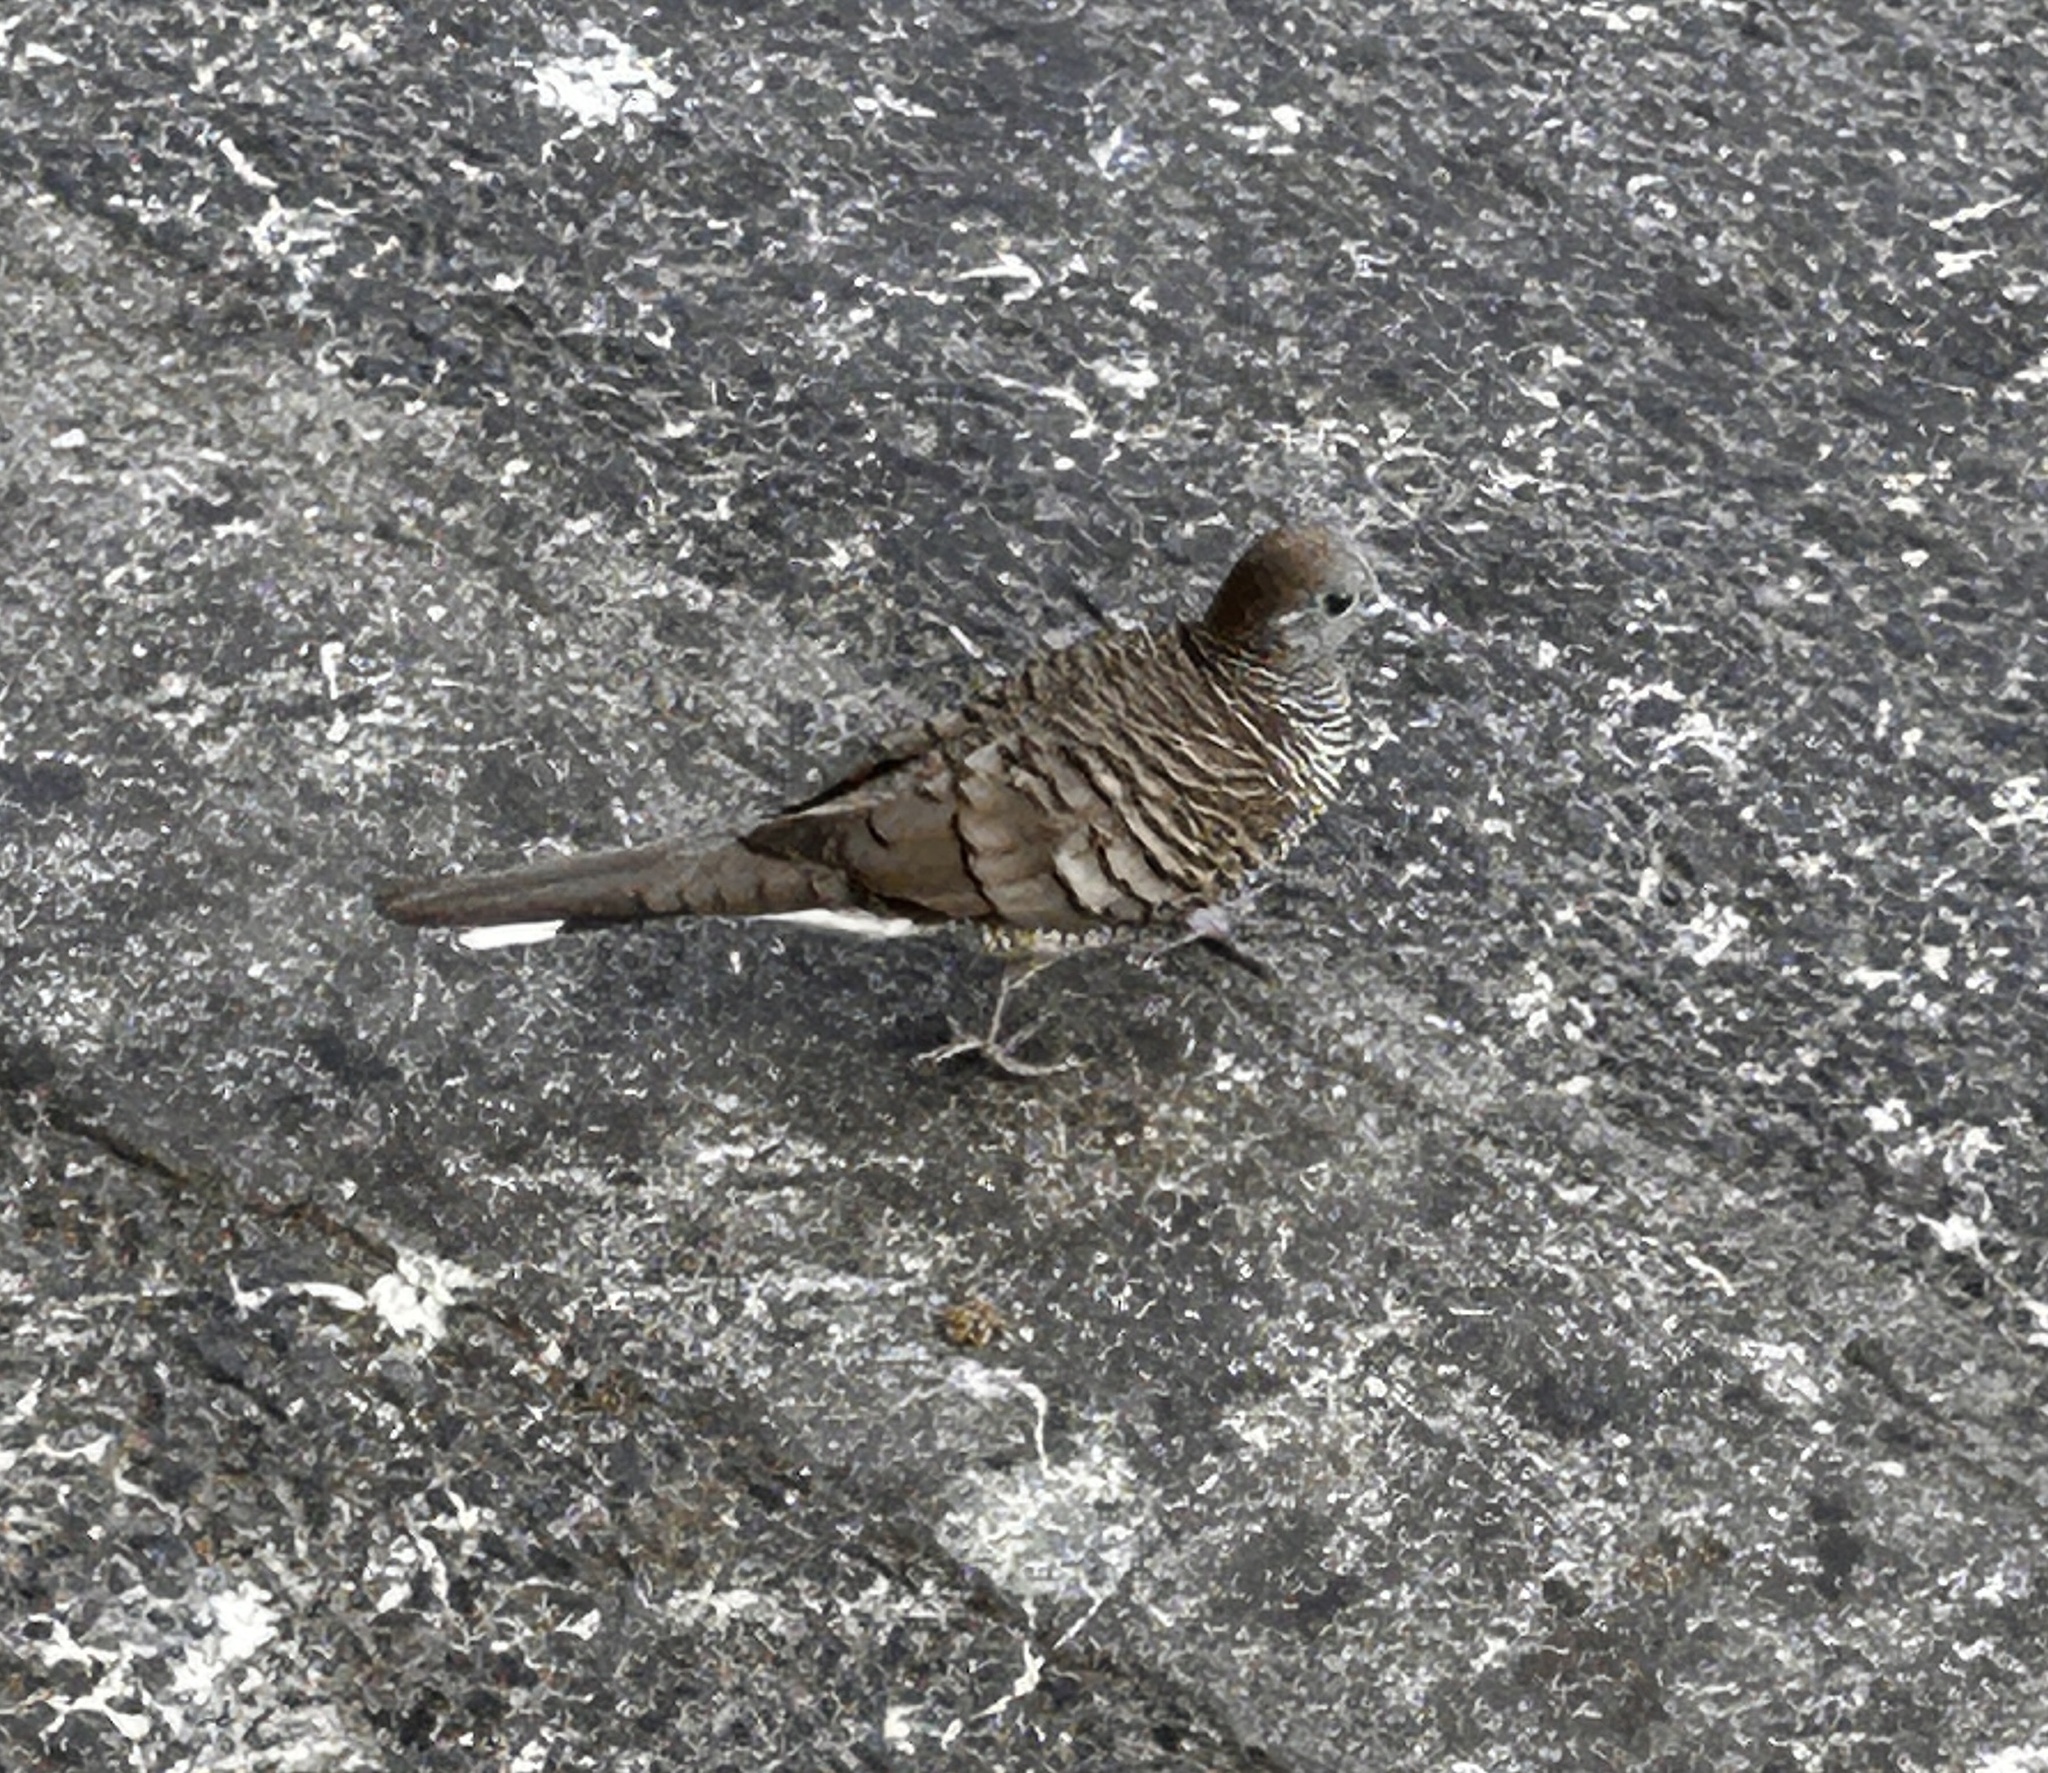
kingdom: Animalia
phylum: Chordata
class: Aves
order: Columbiformes
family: Columbidae
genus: Geopelia
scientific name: Geopelia striata
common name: Zebra dove
